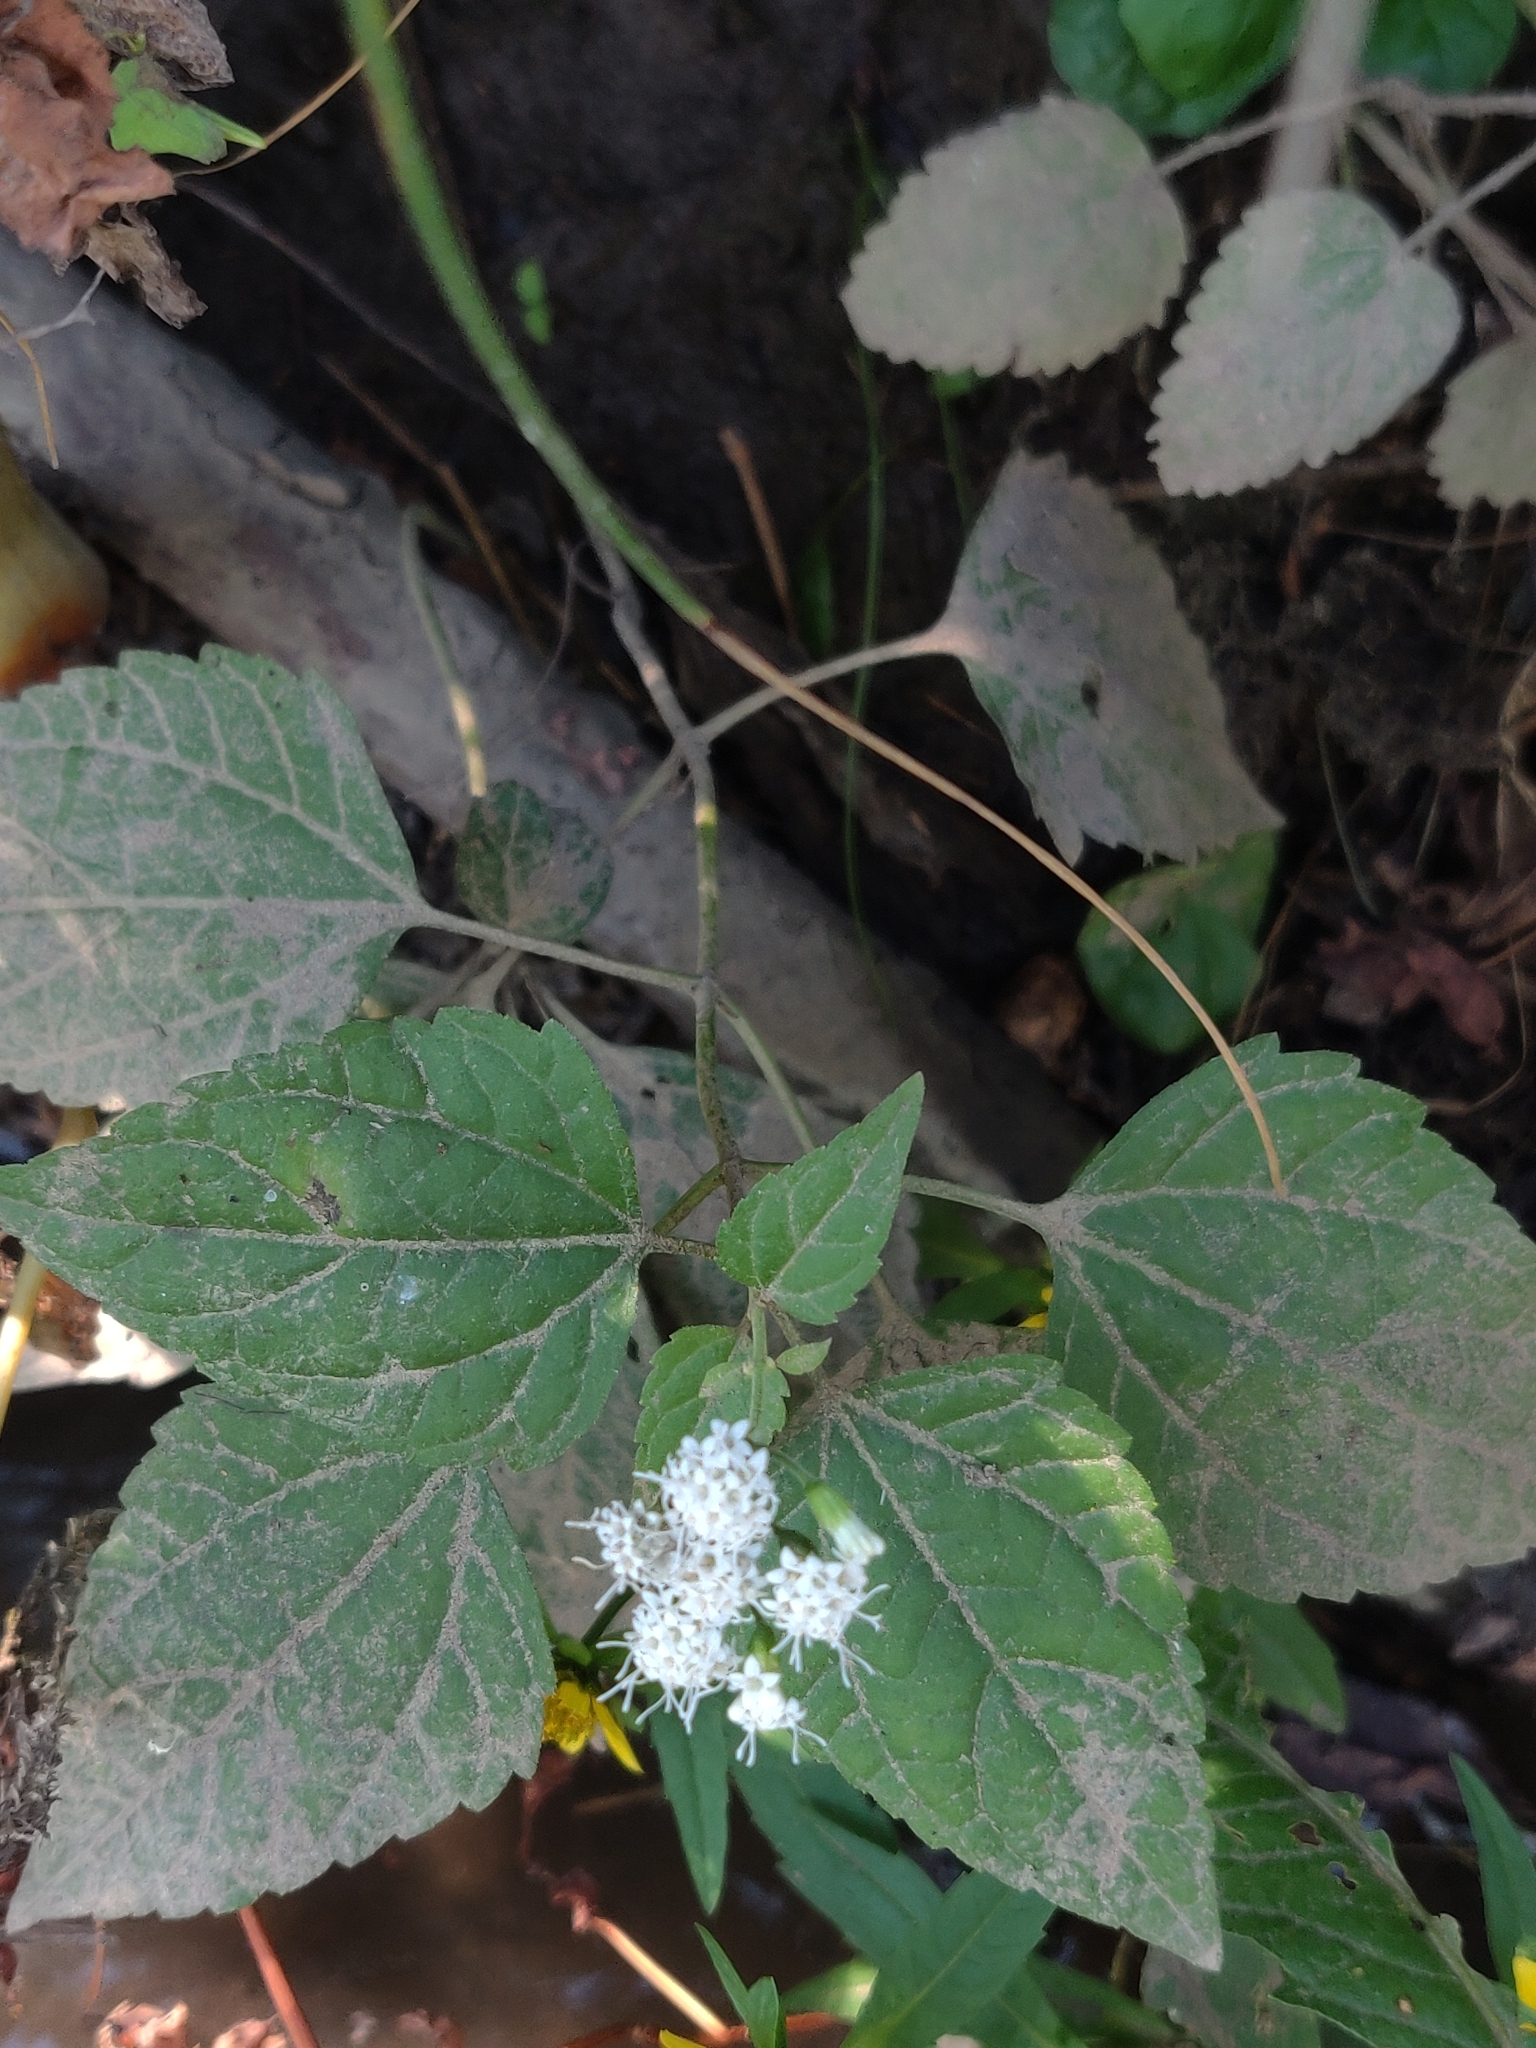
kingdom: Plantae
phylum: Tracheophyta
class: Magnoliopsida
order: Asterales
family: Asteraceae
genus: Ageratina
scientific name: Ageratina altissima
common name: White snakeroot
